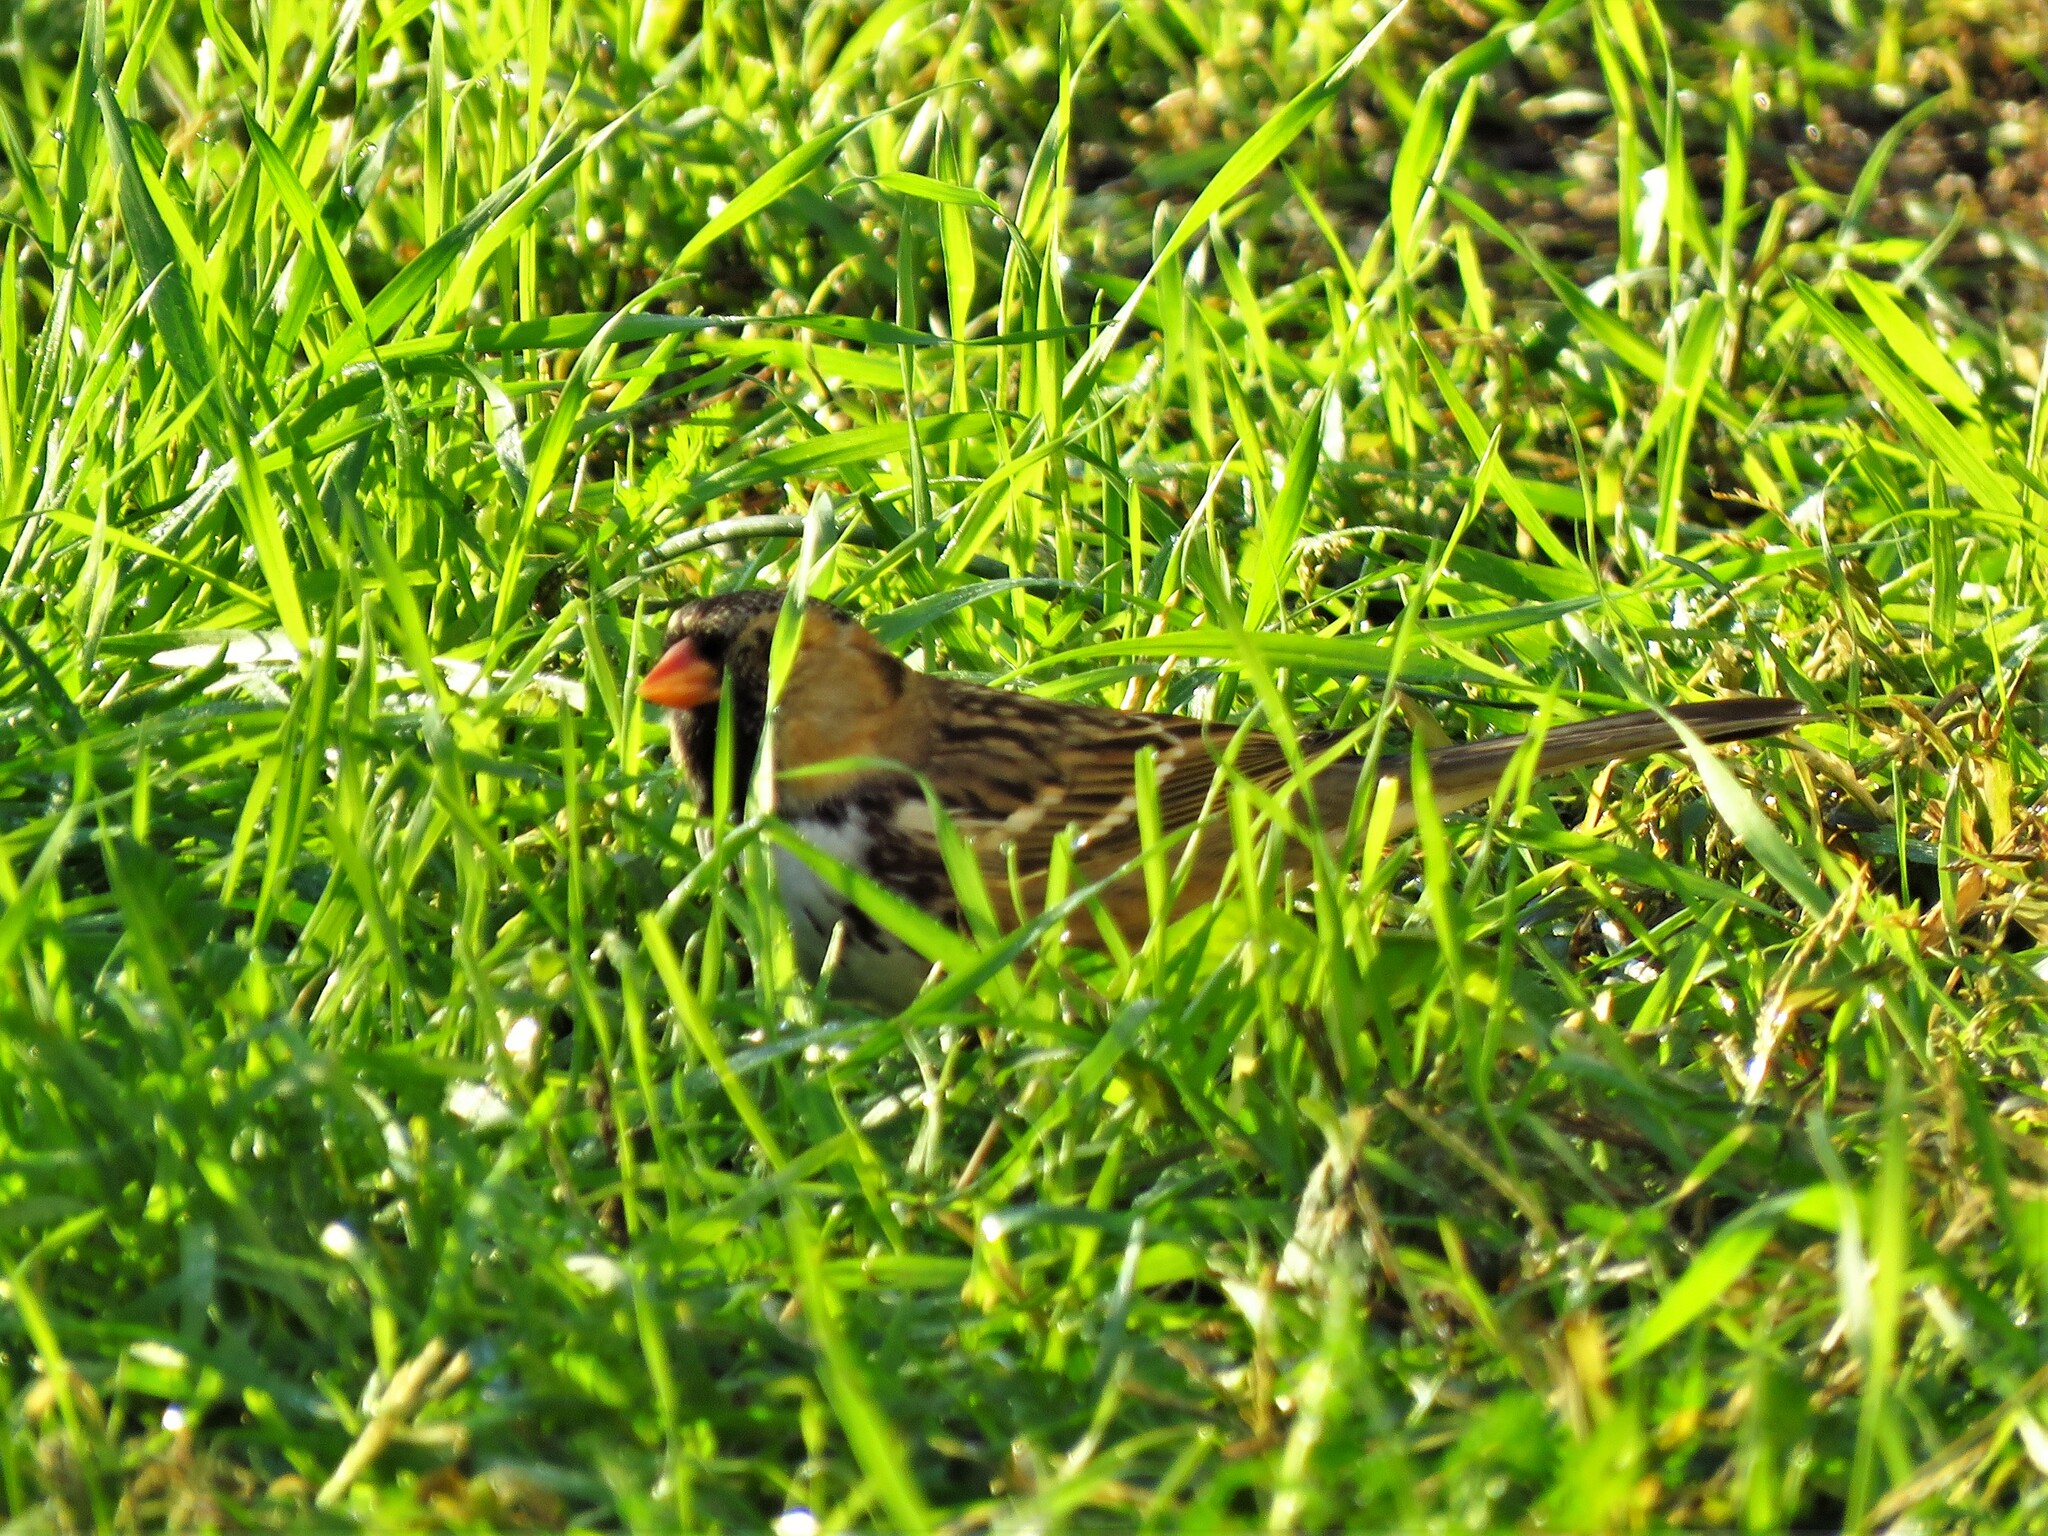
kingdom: Animalia
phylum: Chordata
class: Aves
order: Passeriformes
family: Passerellidae
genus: Zonotrichia
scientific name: Zonotrichia querula
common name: Harris's sparrow
